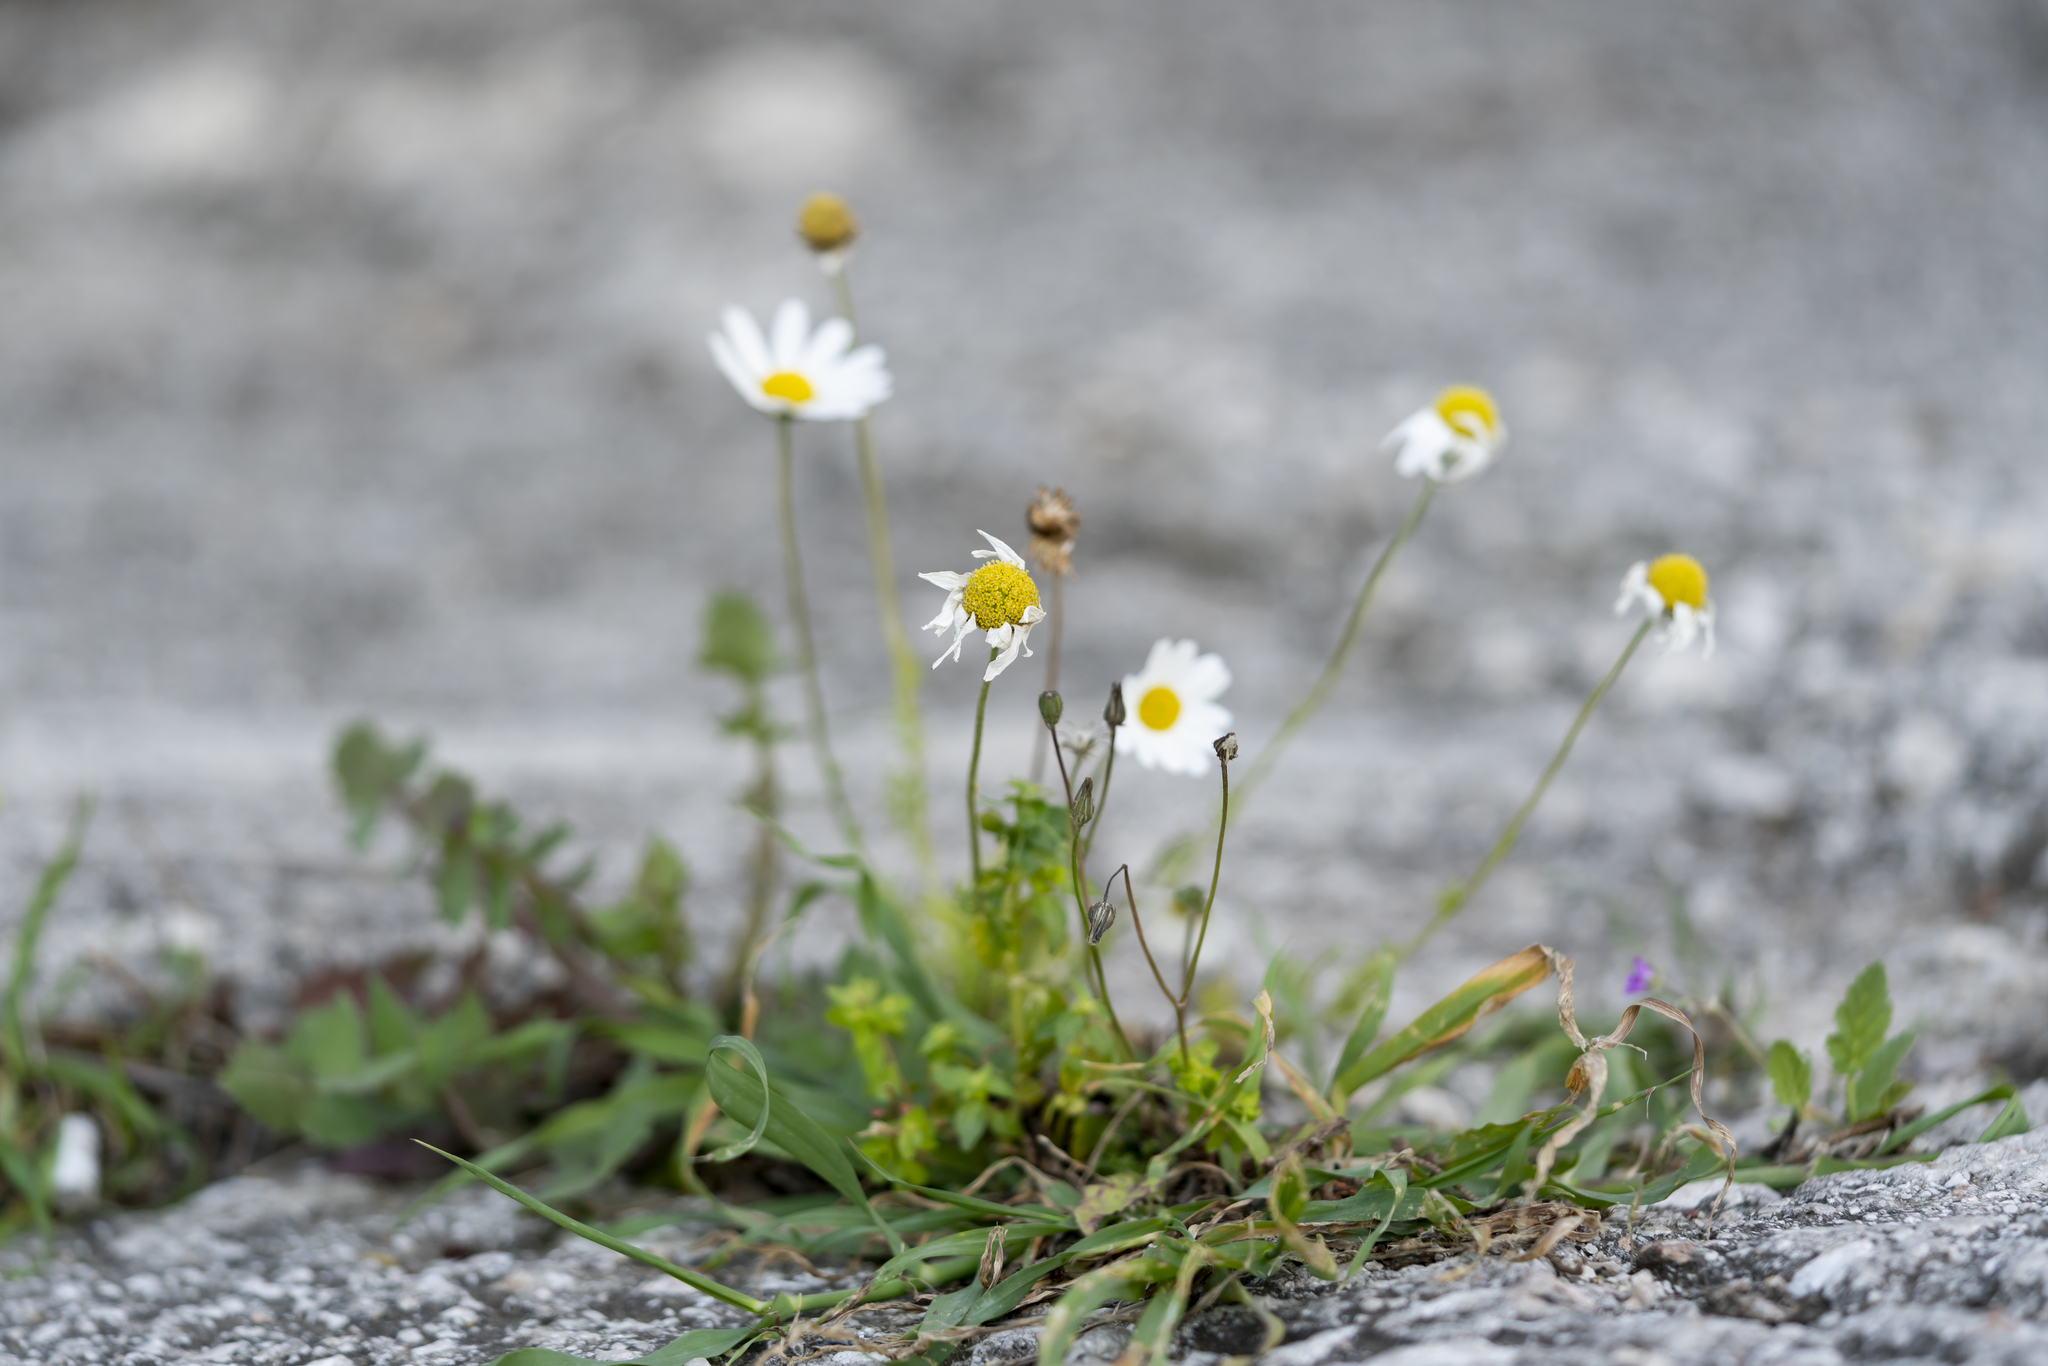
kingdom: Plantae
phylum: Tracheophyta
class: Magnoliopsida
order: Asterales
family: Asteraceae
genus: Anthemis
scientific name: Anthemis chia
